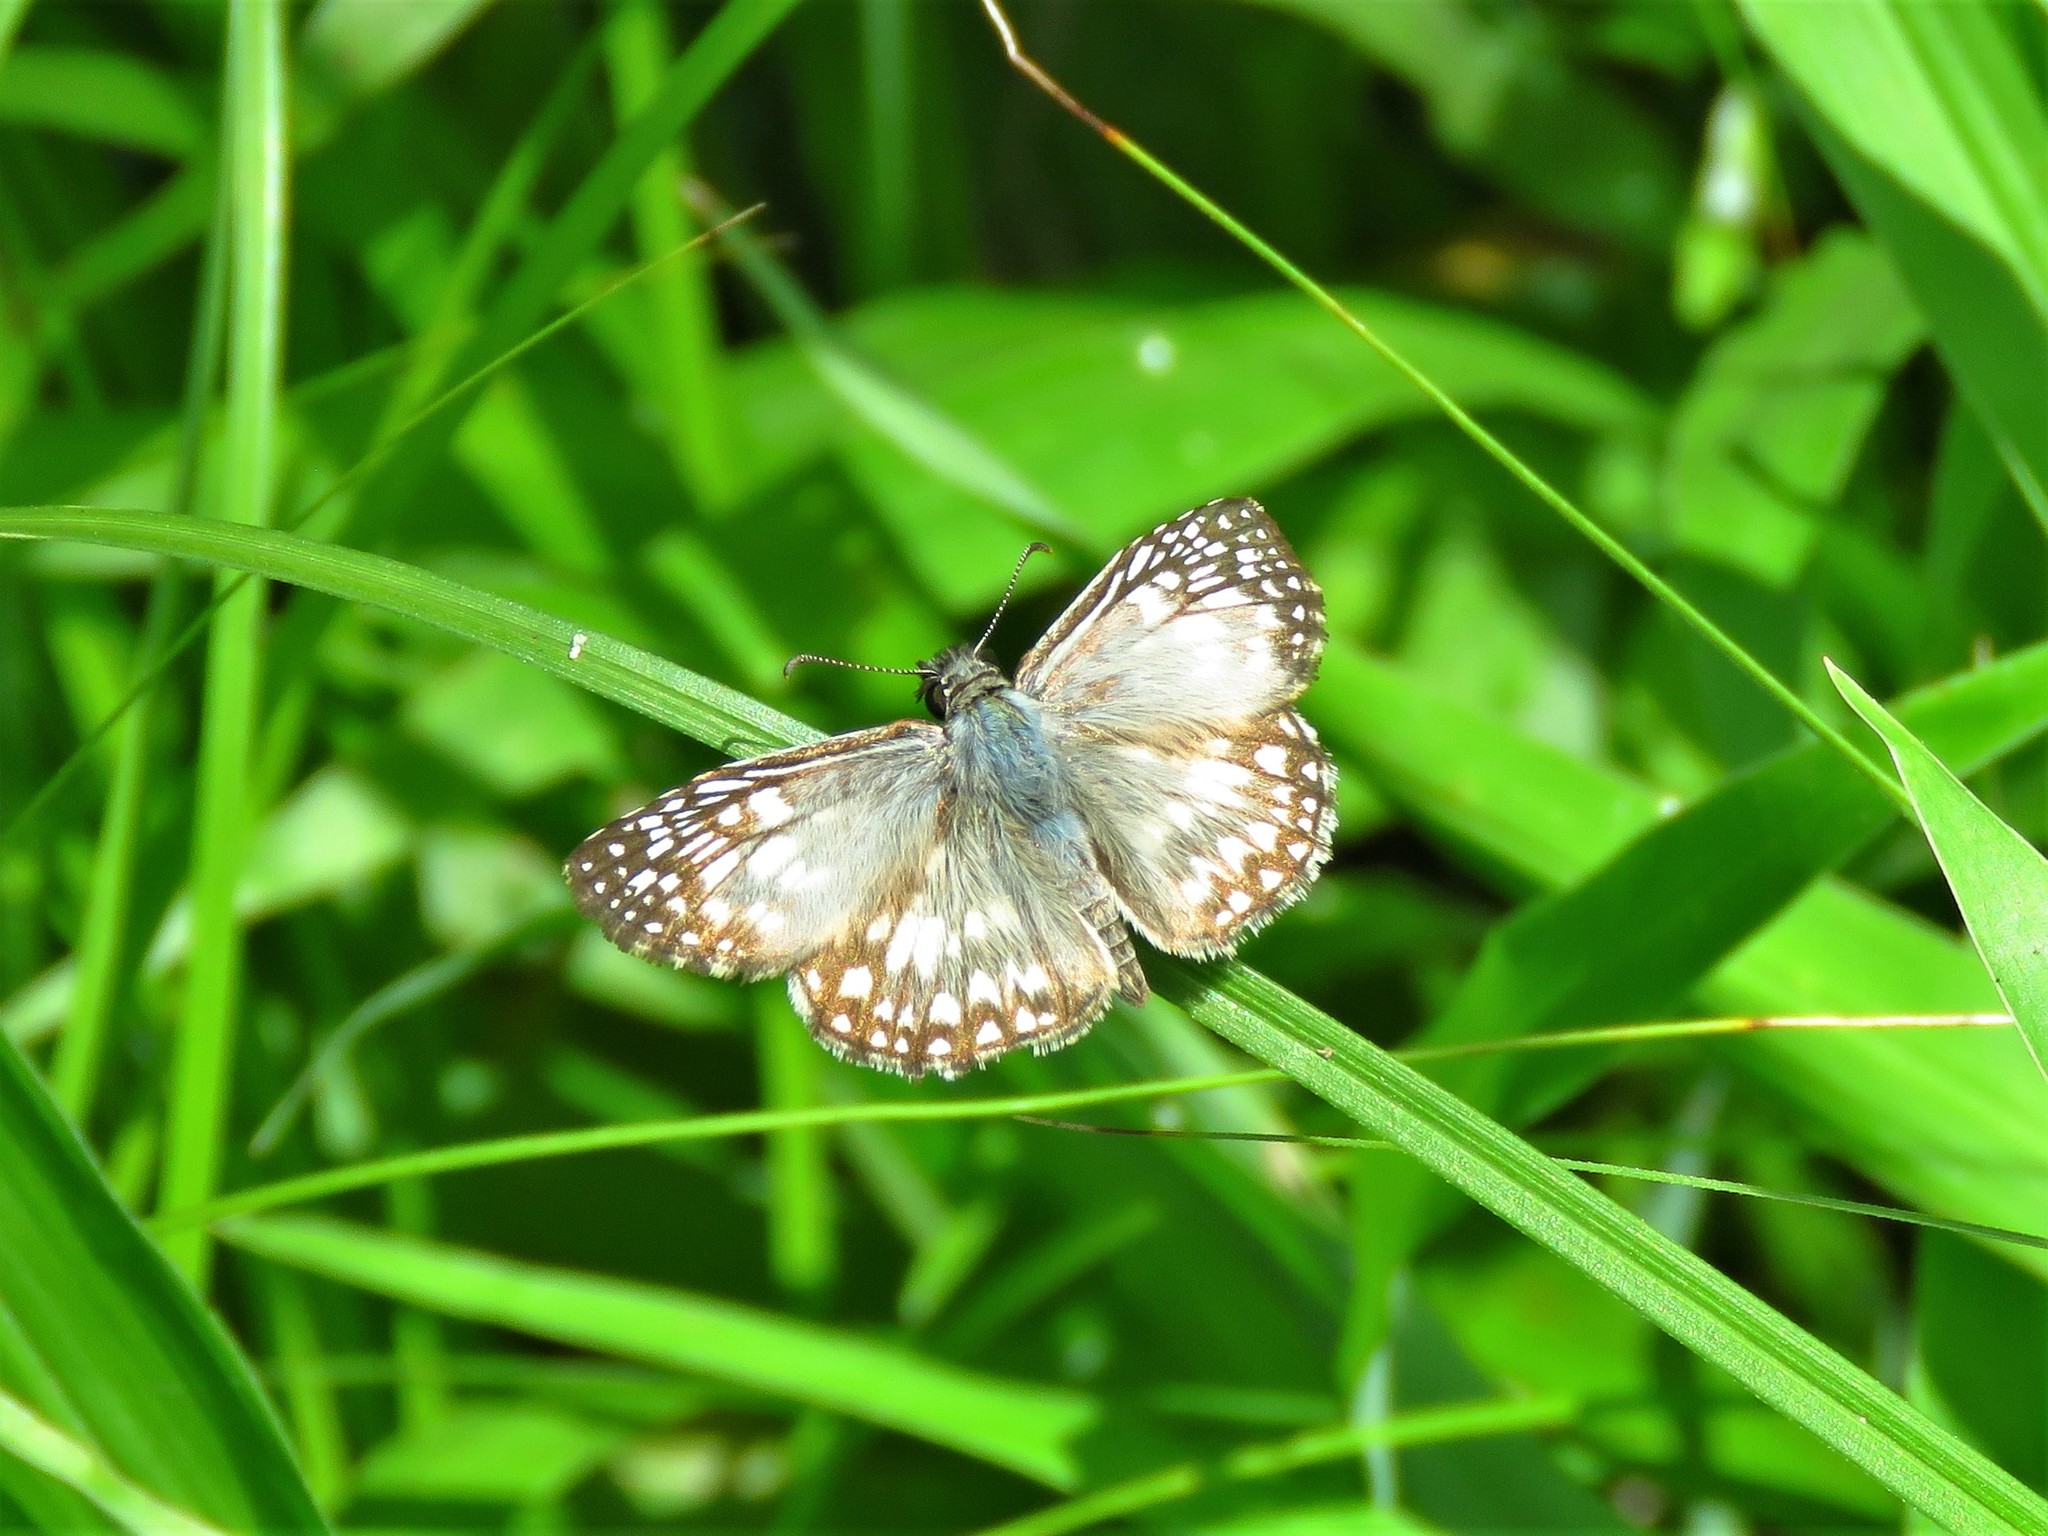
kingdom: Animalia
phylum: Arthropoda
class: Insecta
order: Lepidoptera
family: Hesperiidae
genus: Pyrgus
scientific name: Pyrgus oileus
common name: Tropical checkered-skipper
